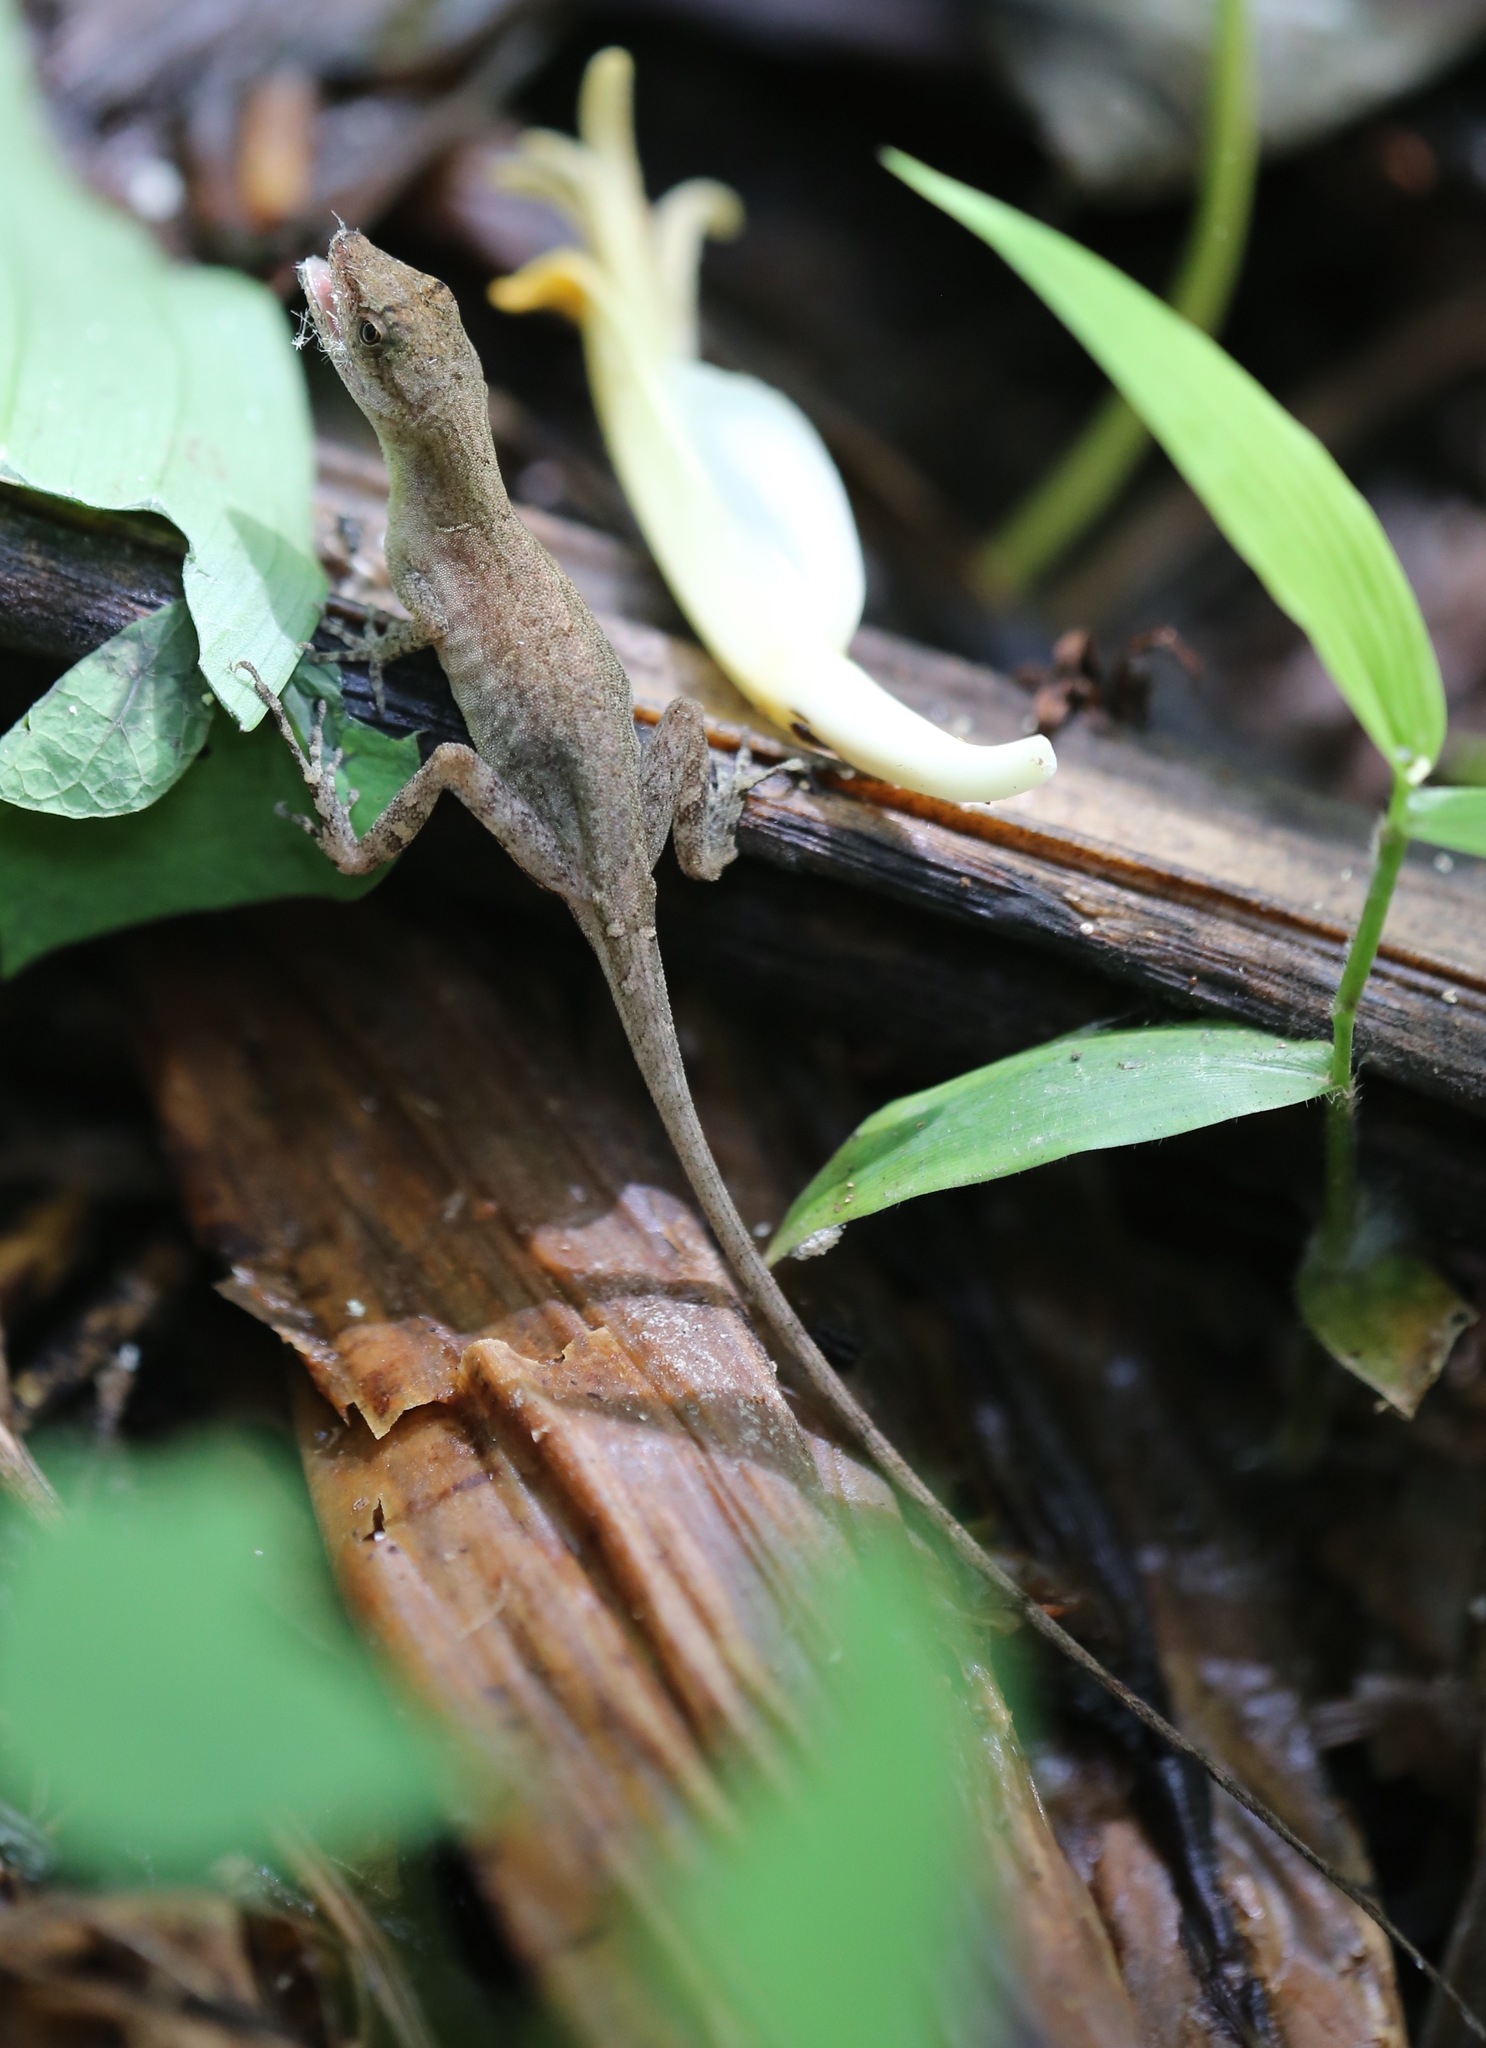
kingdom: Animalia
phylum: Chordata
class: Squamata
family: Dactyloidae
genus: Anolis
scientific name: Anolis limifrons
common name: Border anole
